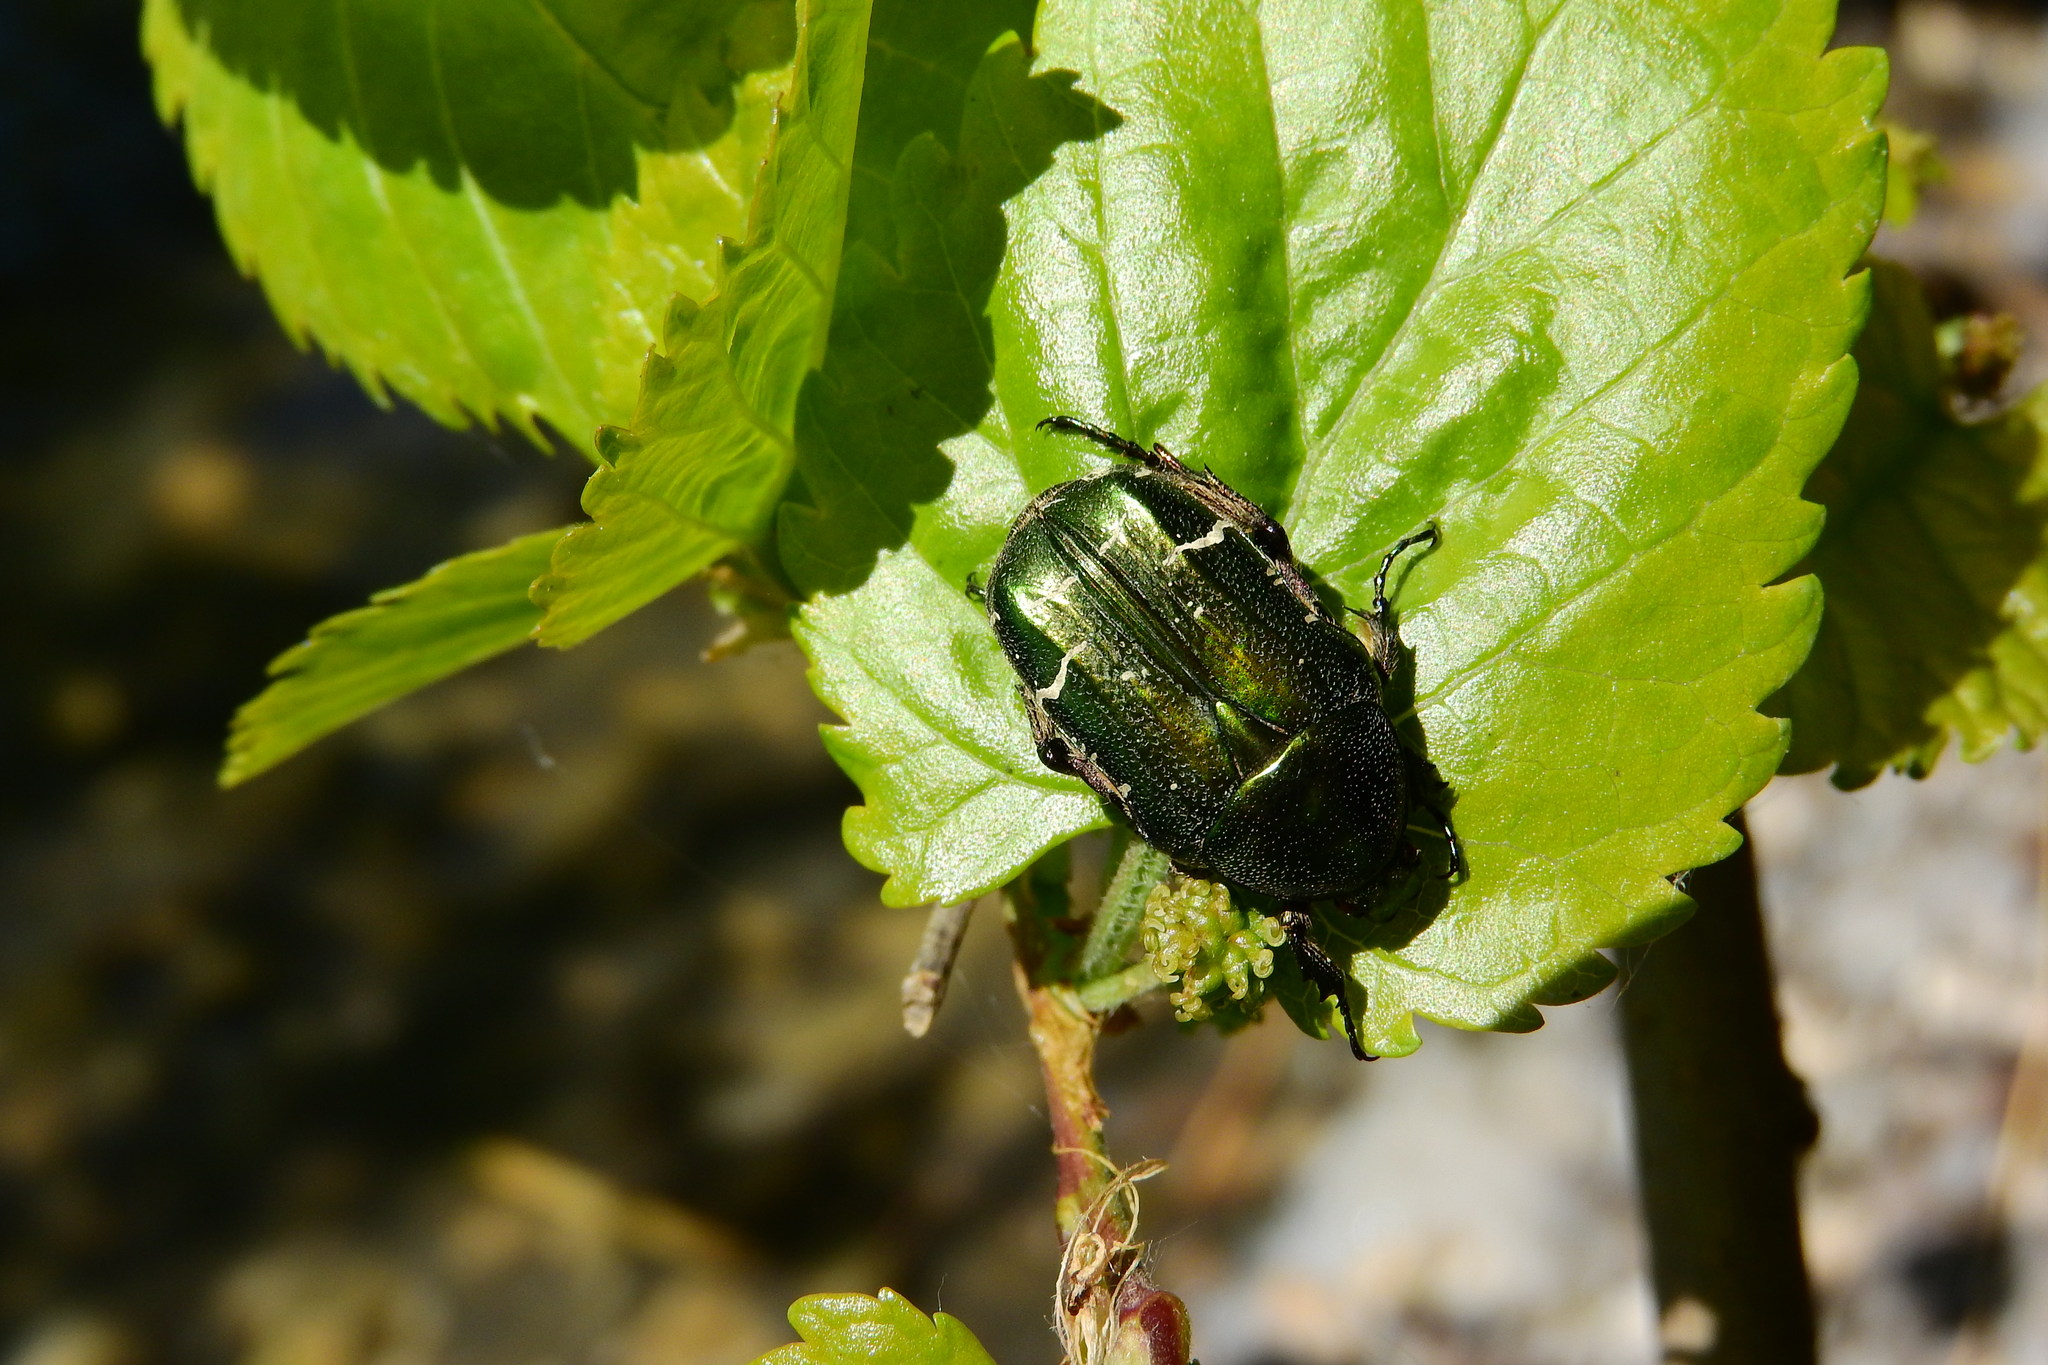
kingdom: Animalia
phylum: Arthropoda
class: Insecta
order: Coleoptera
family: Scarabaeidae
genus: Cetonia
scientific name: Cetonia aurata
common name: Rose chafer
